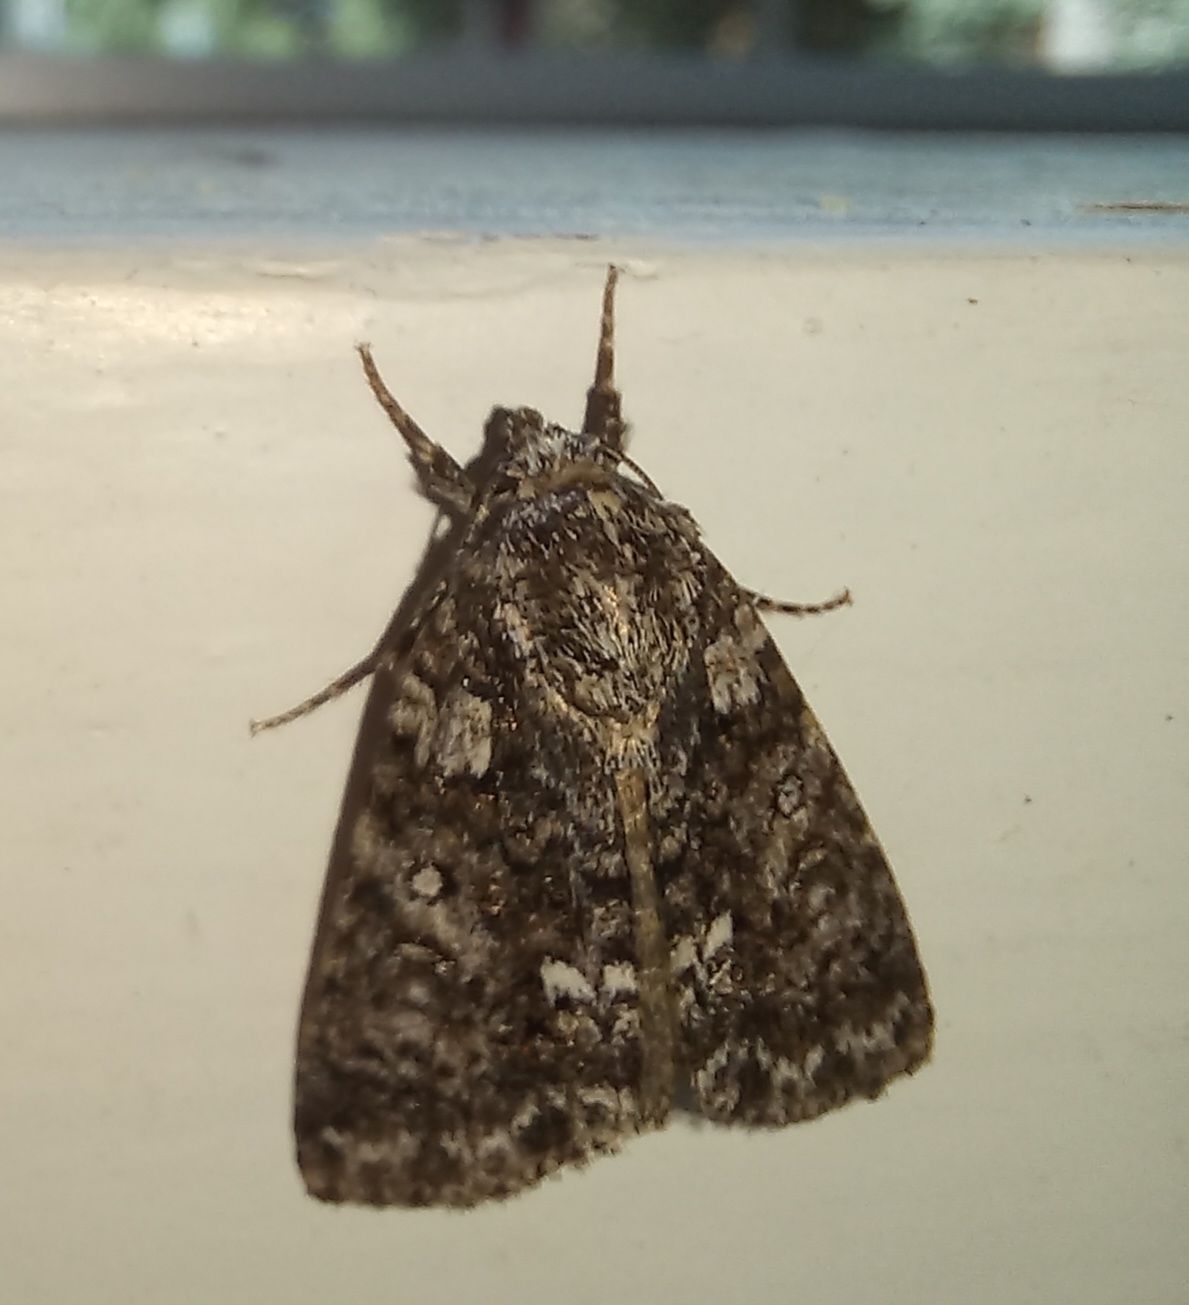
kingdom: Animalia
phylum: Arthropoda
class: Insecta
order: Lepidoptera
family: Noctuidae
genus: Acronicta
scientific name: Acronicta rumicis
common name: Knot grass
